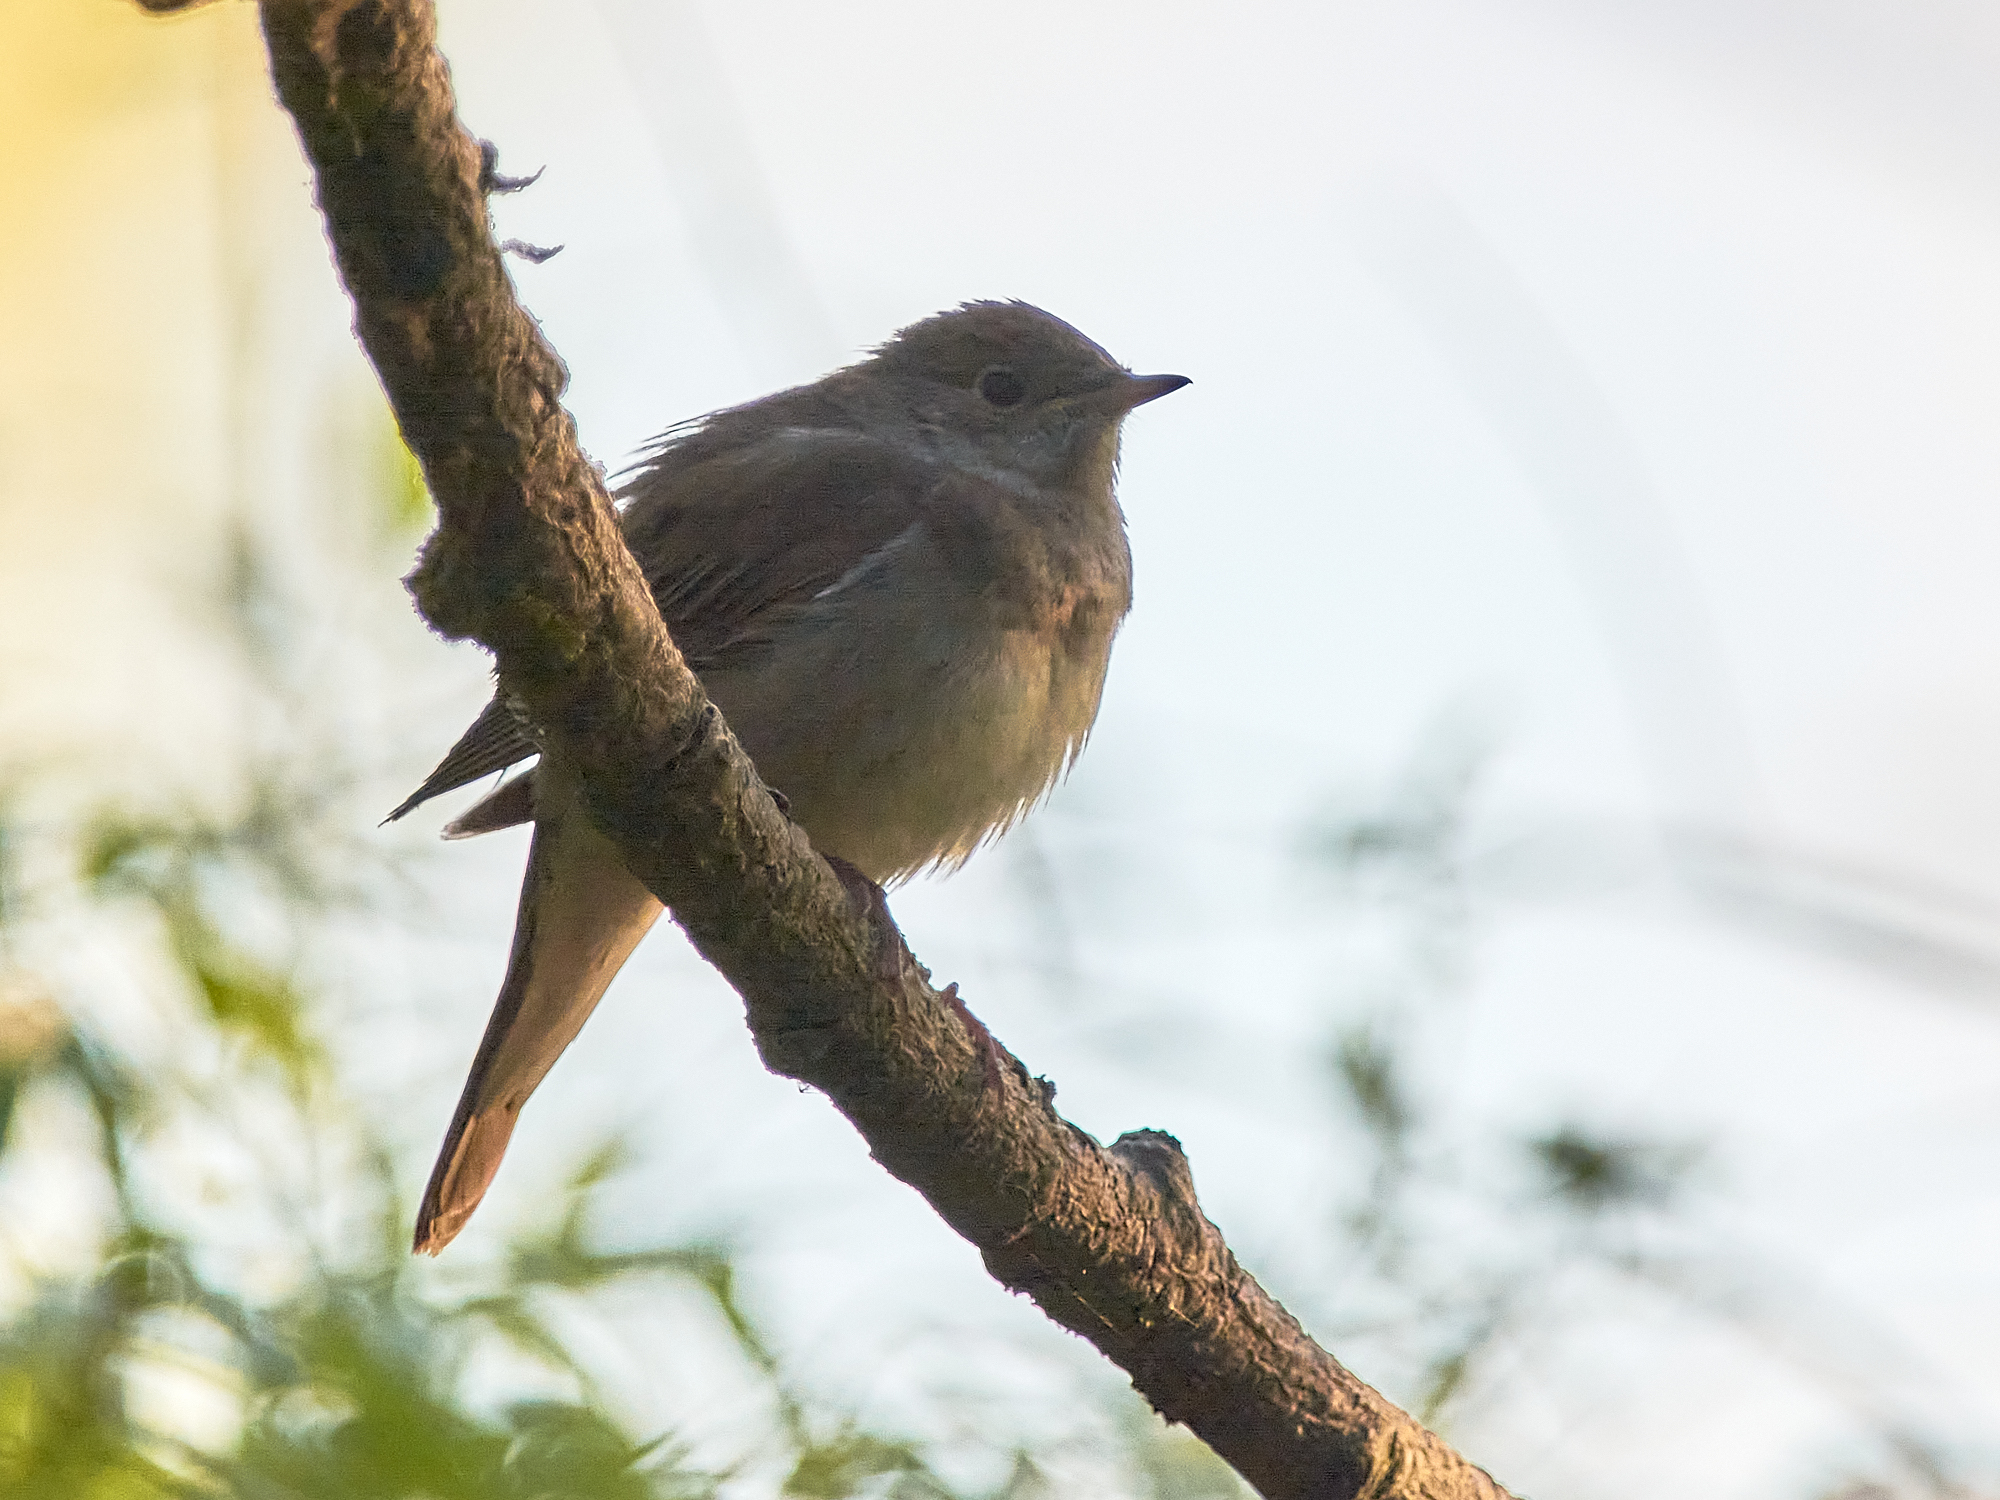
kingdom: Animalia
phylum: Chordata
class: Aves
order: Passeriformes
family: Muscicapidae
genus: Luscinia
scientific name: Luscinia luscinia
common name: Thrush nightingale
